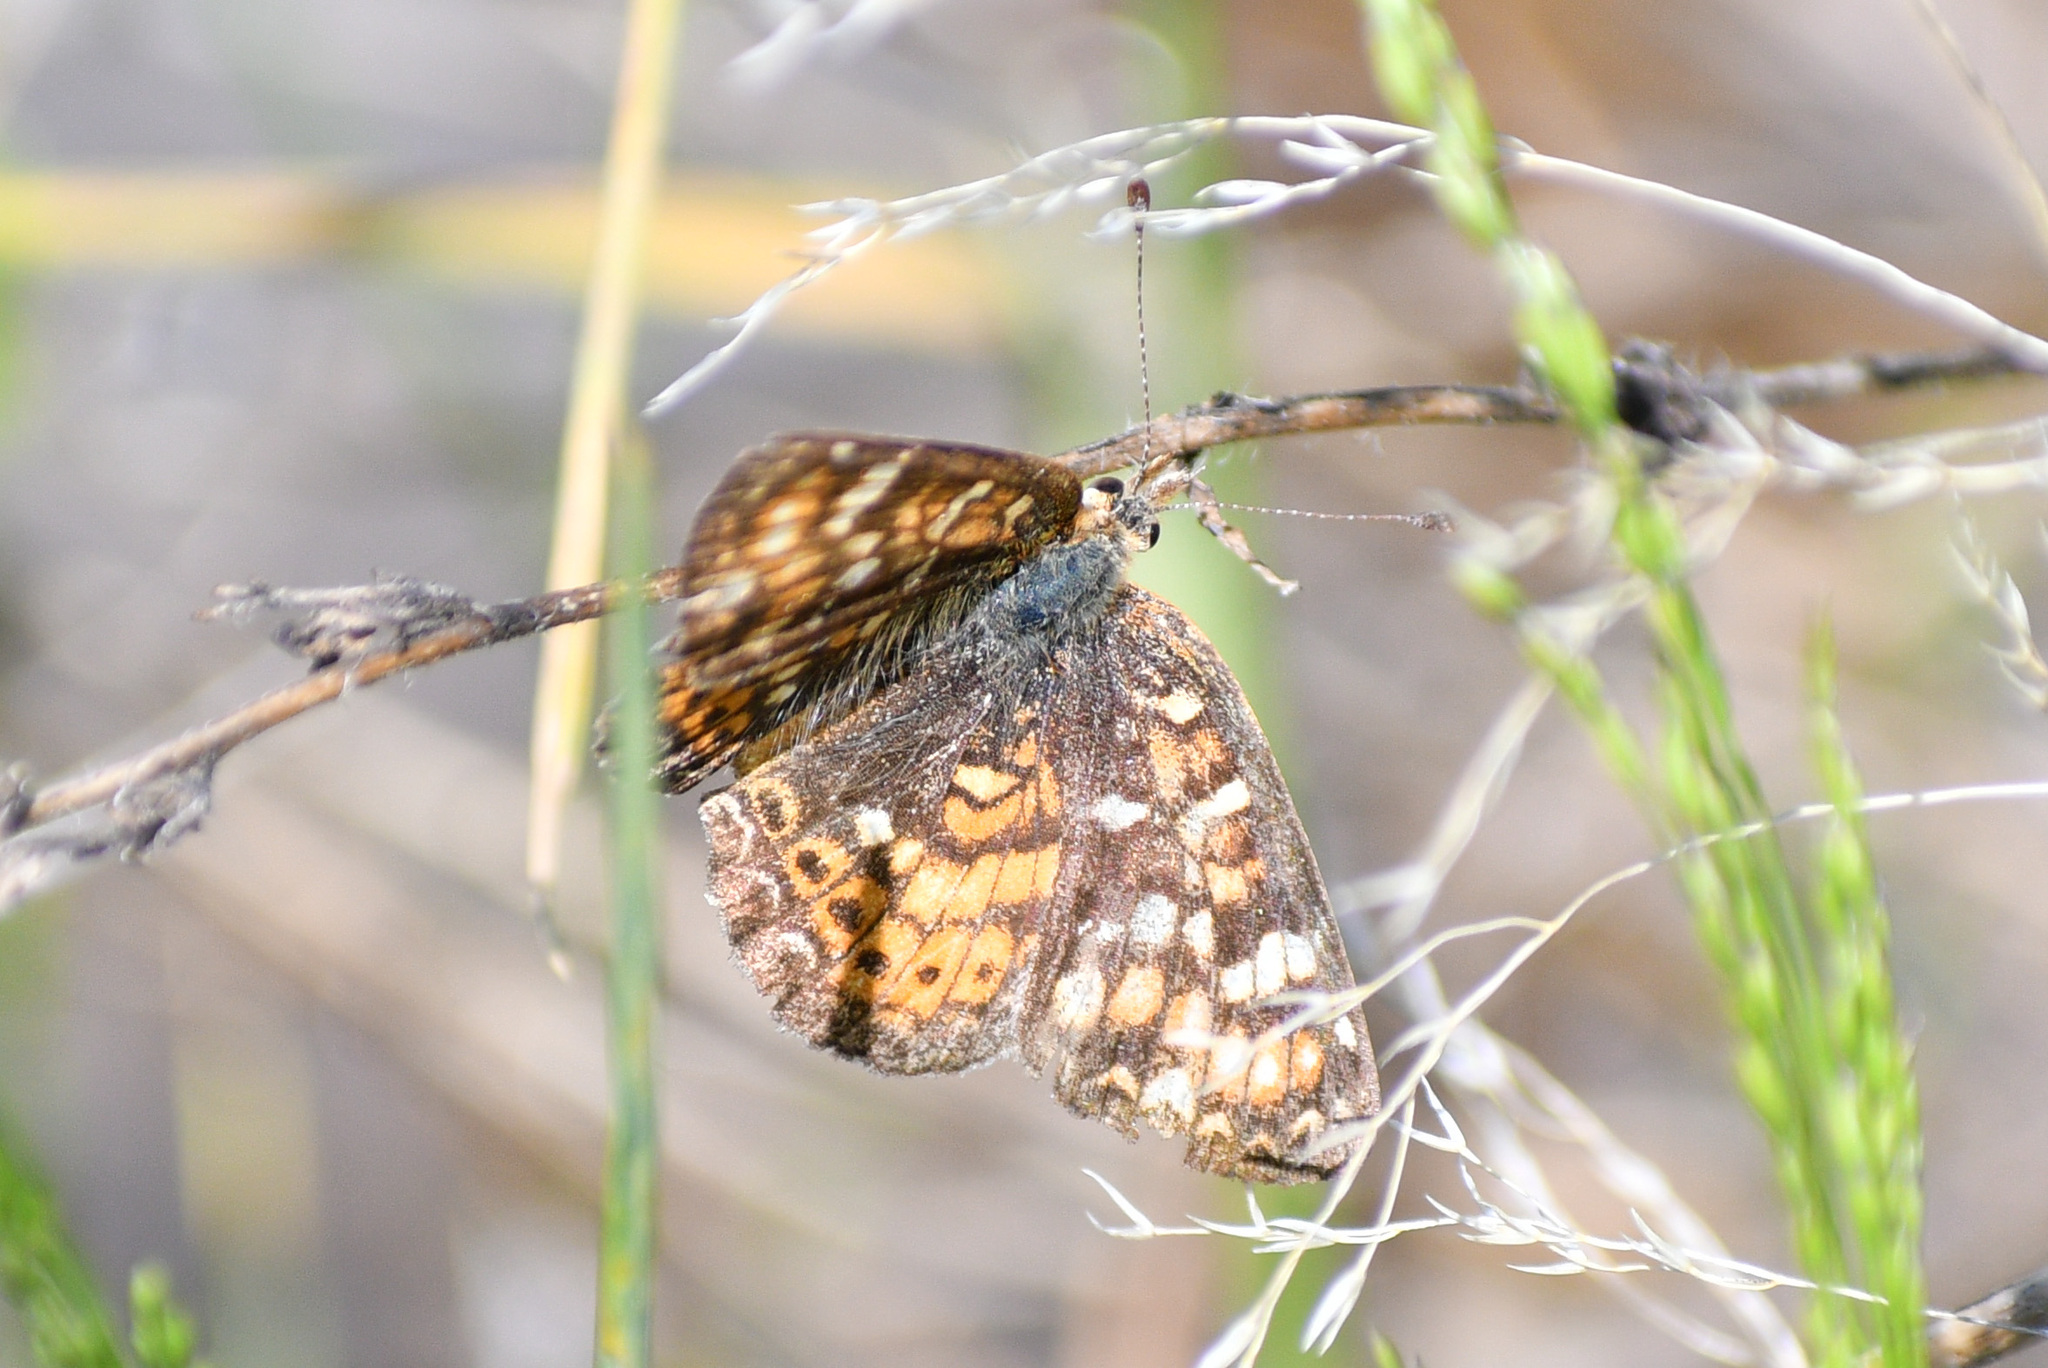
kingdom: Animalia
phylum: Arthropoda
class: Insecta
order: Lepidoptera
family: Nymphalidae
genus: Phyciodes
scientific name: Phyciodes tharos
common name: Pearl crescent
